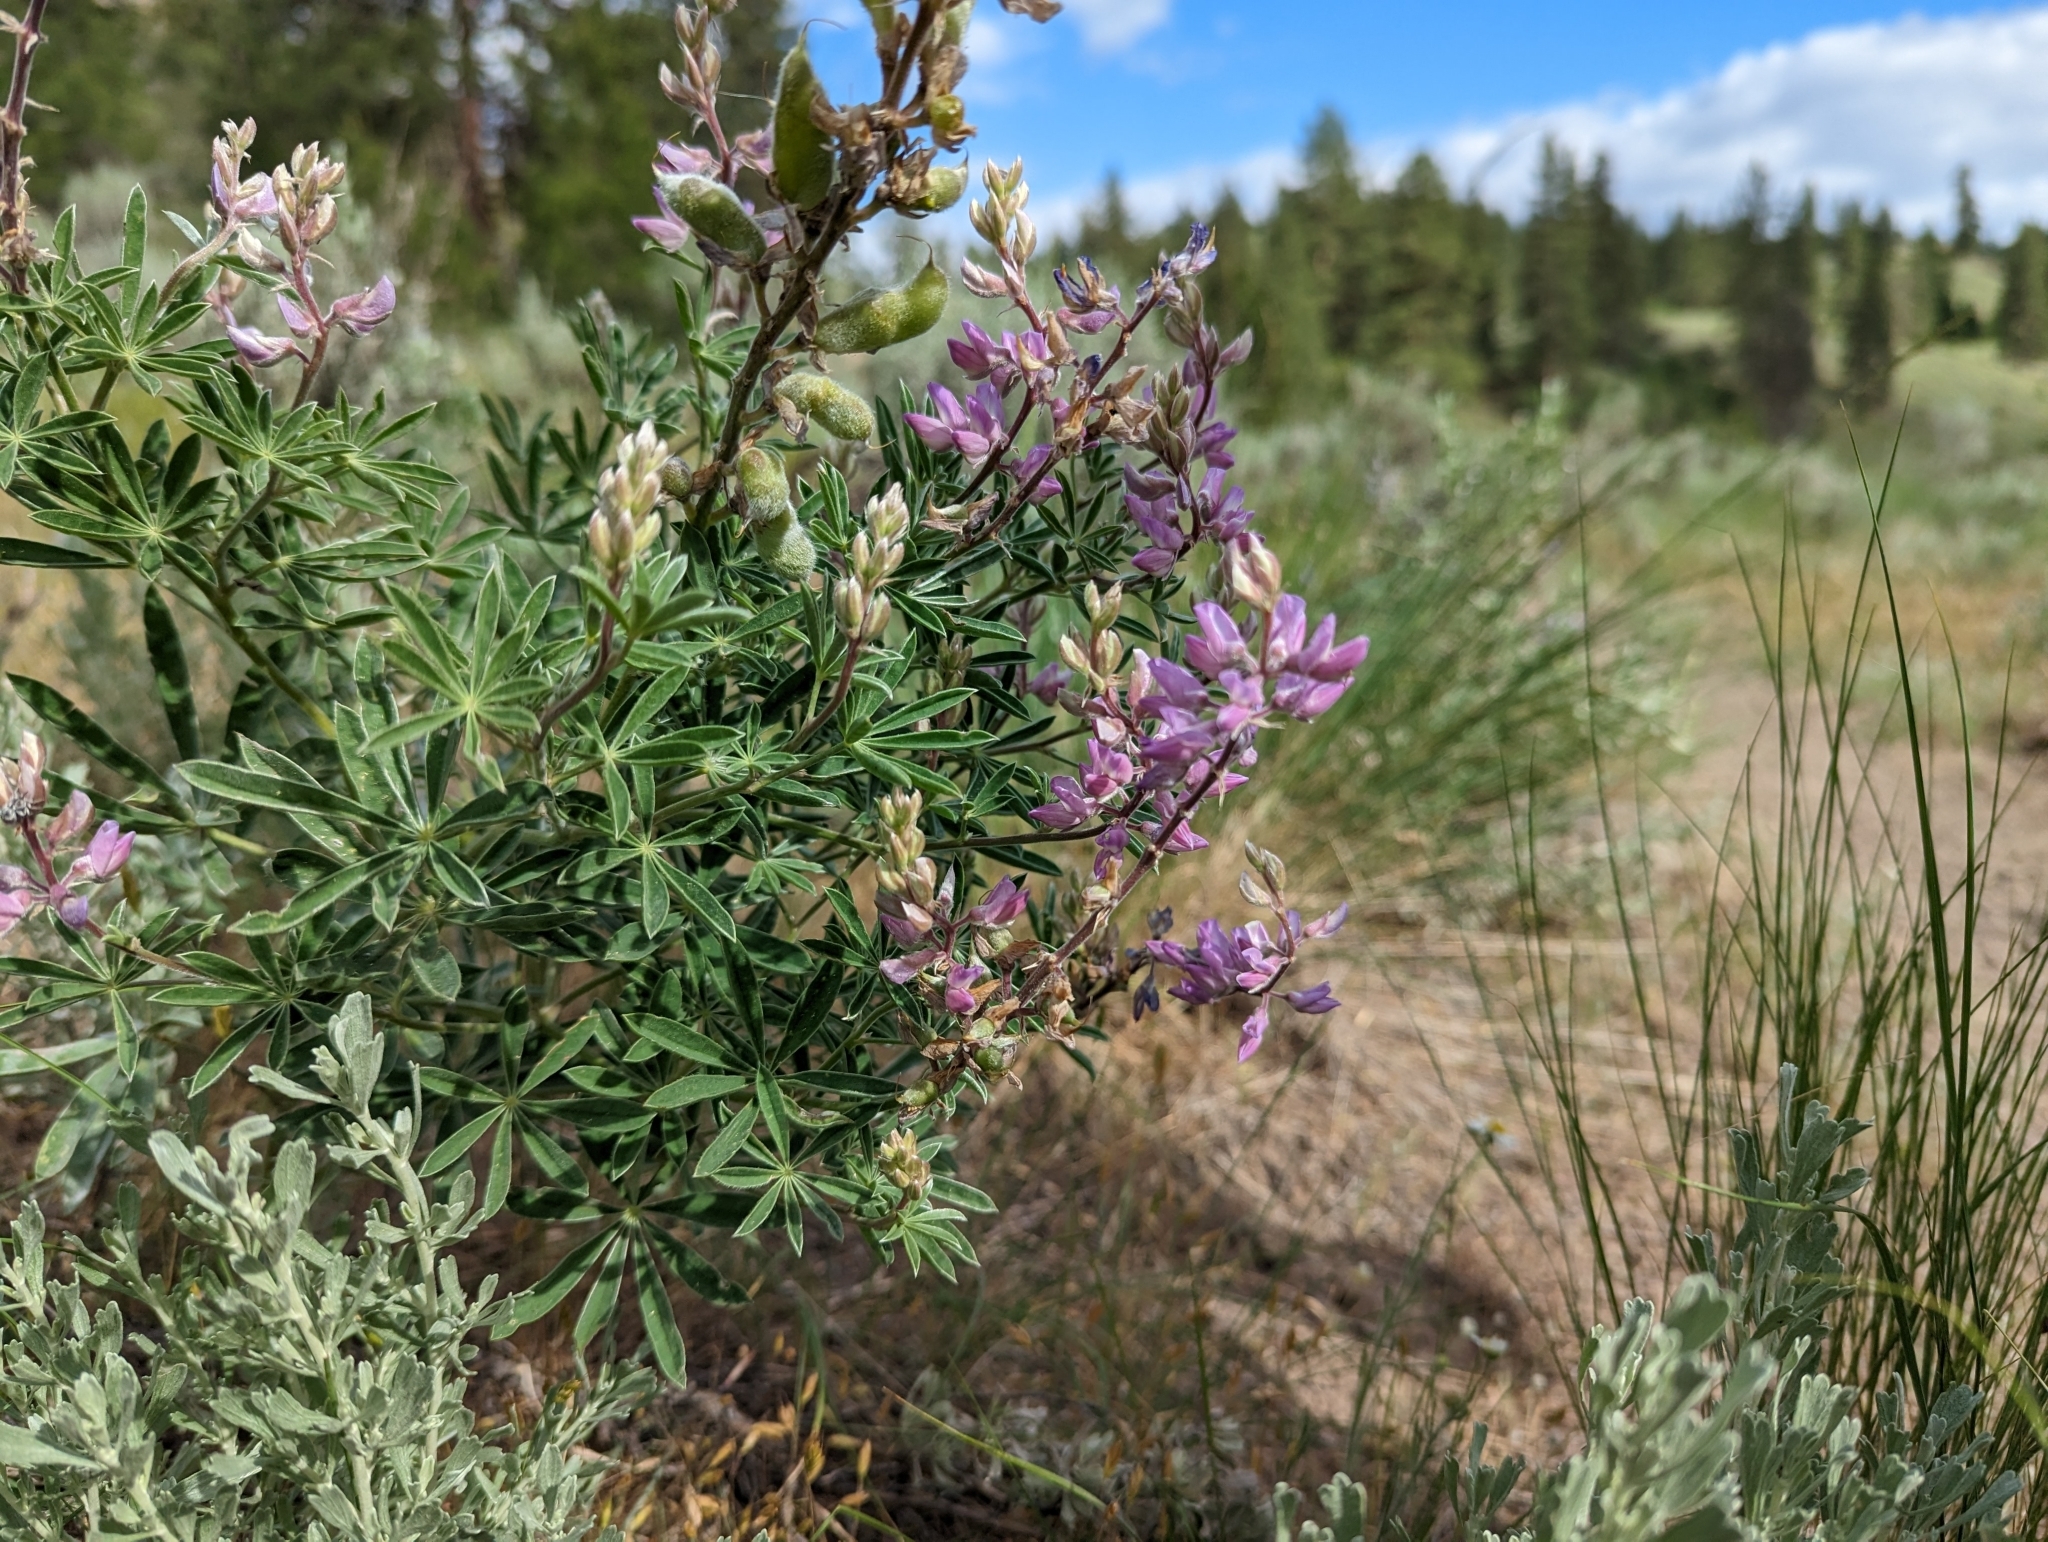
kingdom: Plantae
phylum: Tracheophyta
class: Magnoliopsida
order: Fabales
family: Fabaceae
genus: Lupinus
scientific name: Lupinus sericeus
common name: Silky lupine
